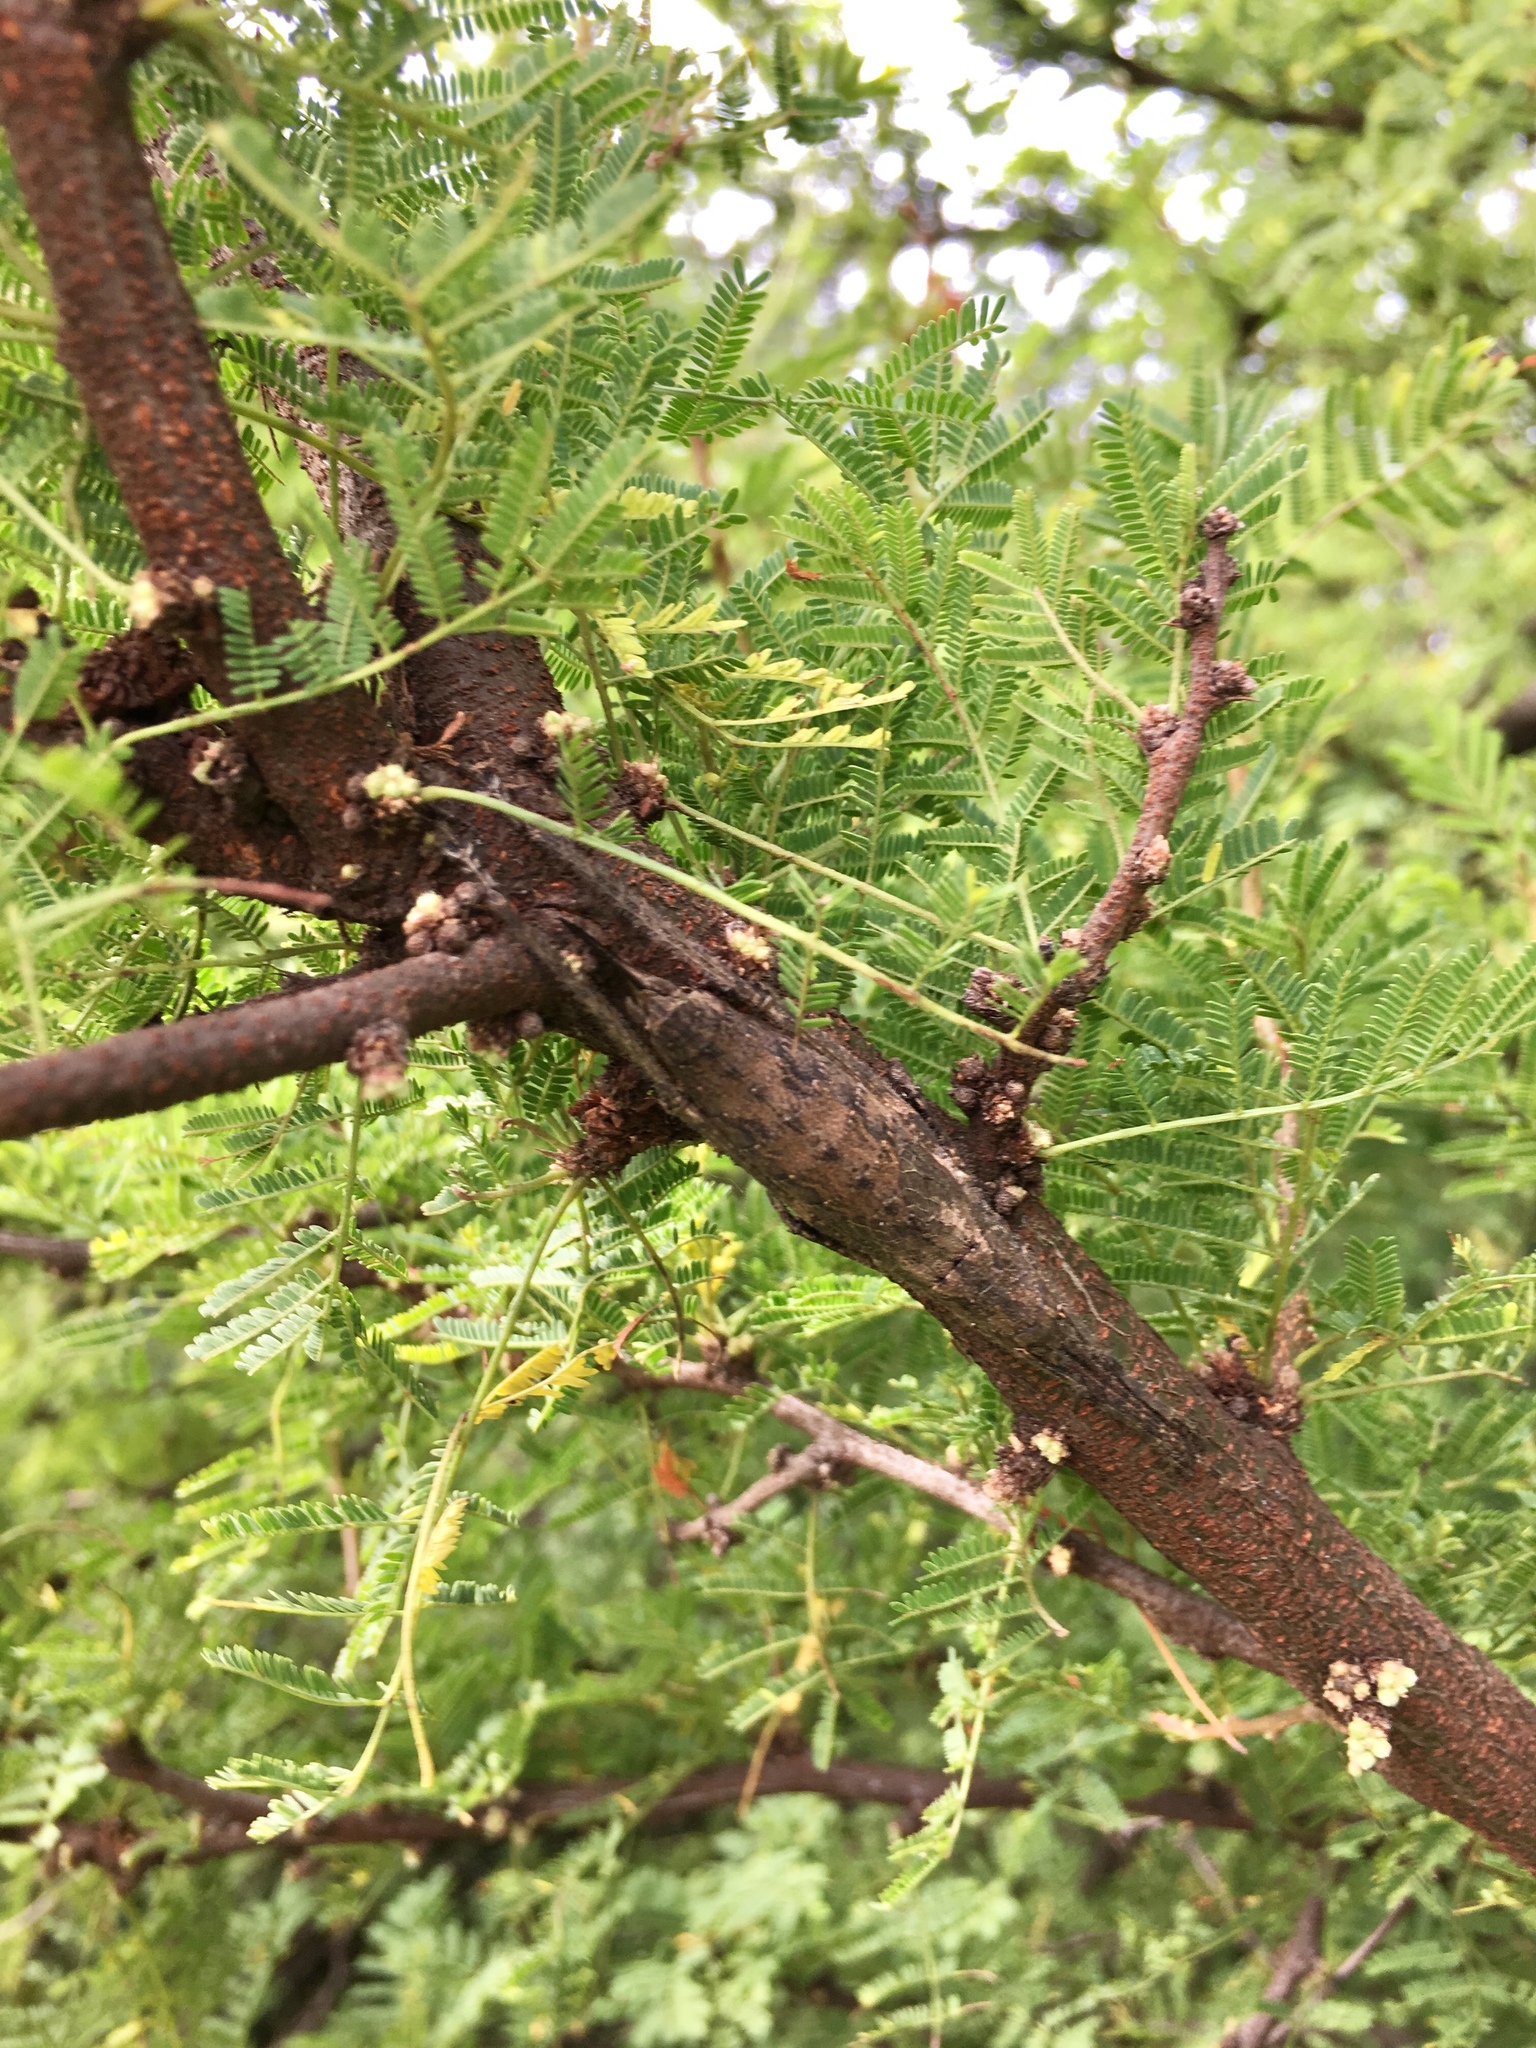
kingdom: Animalia
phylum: Arthropoda
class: Insecta
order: Orthoptera
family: Tettigoniidae
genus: Dasyscelus
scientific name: Dasyscelus normalis
